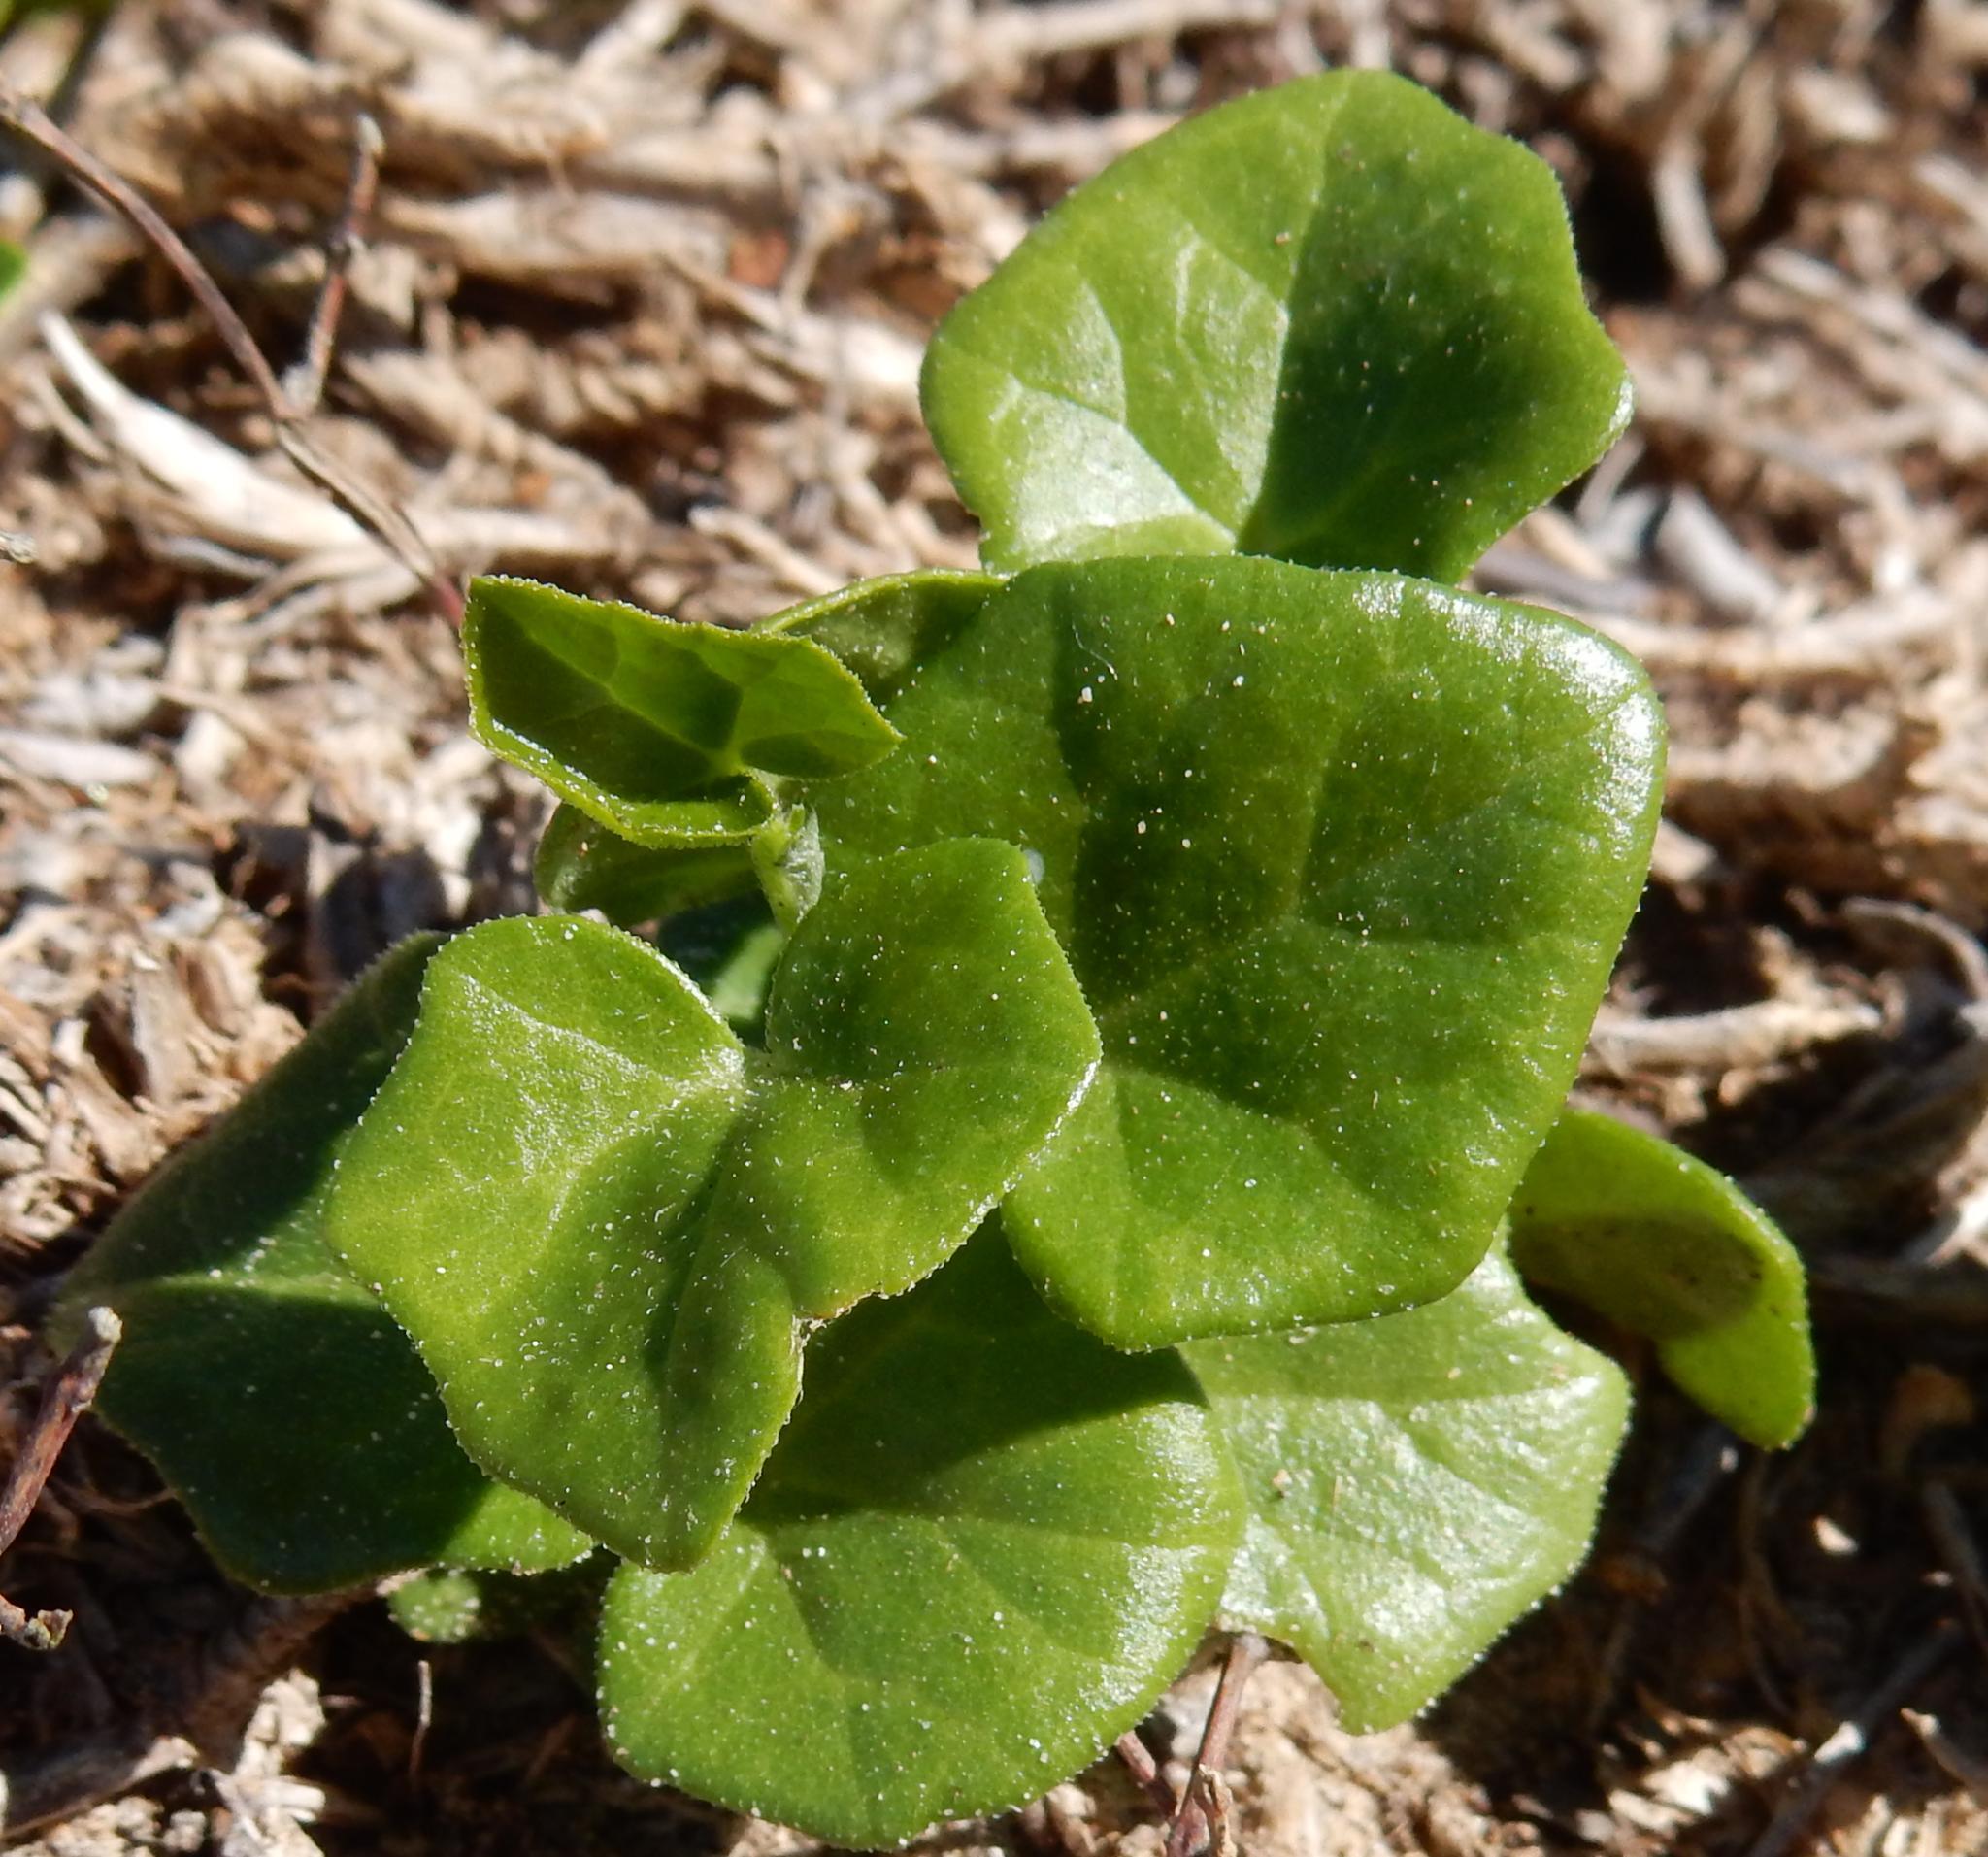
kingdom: Plantae
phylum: Tracheophyta
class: Magnoliopsida
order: Cucurbitales
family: Cucurbitaceae
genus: Kedrostis
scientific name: Kedrostis nana
